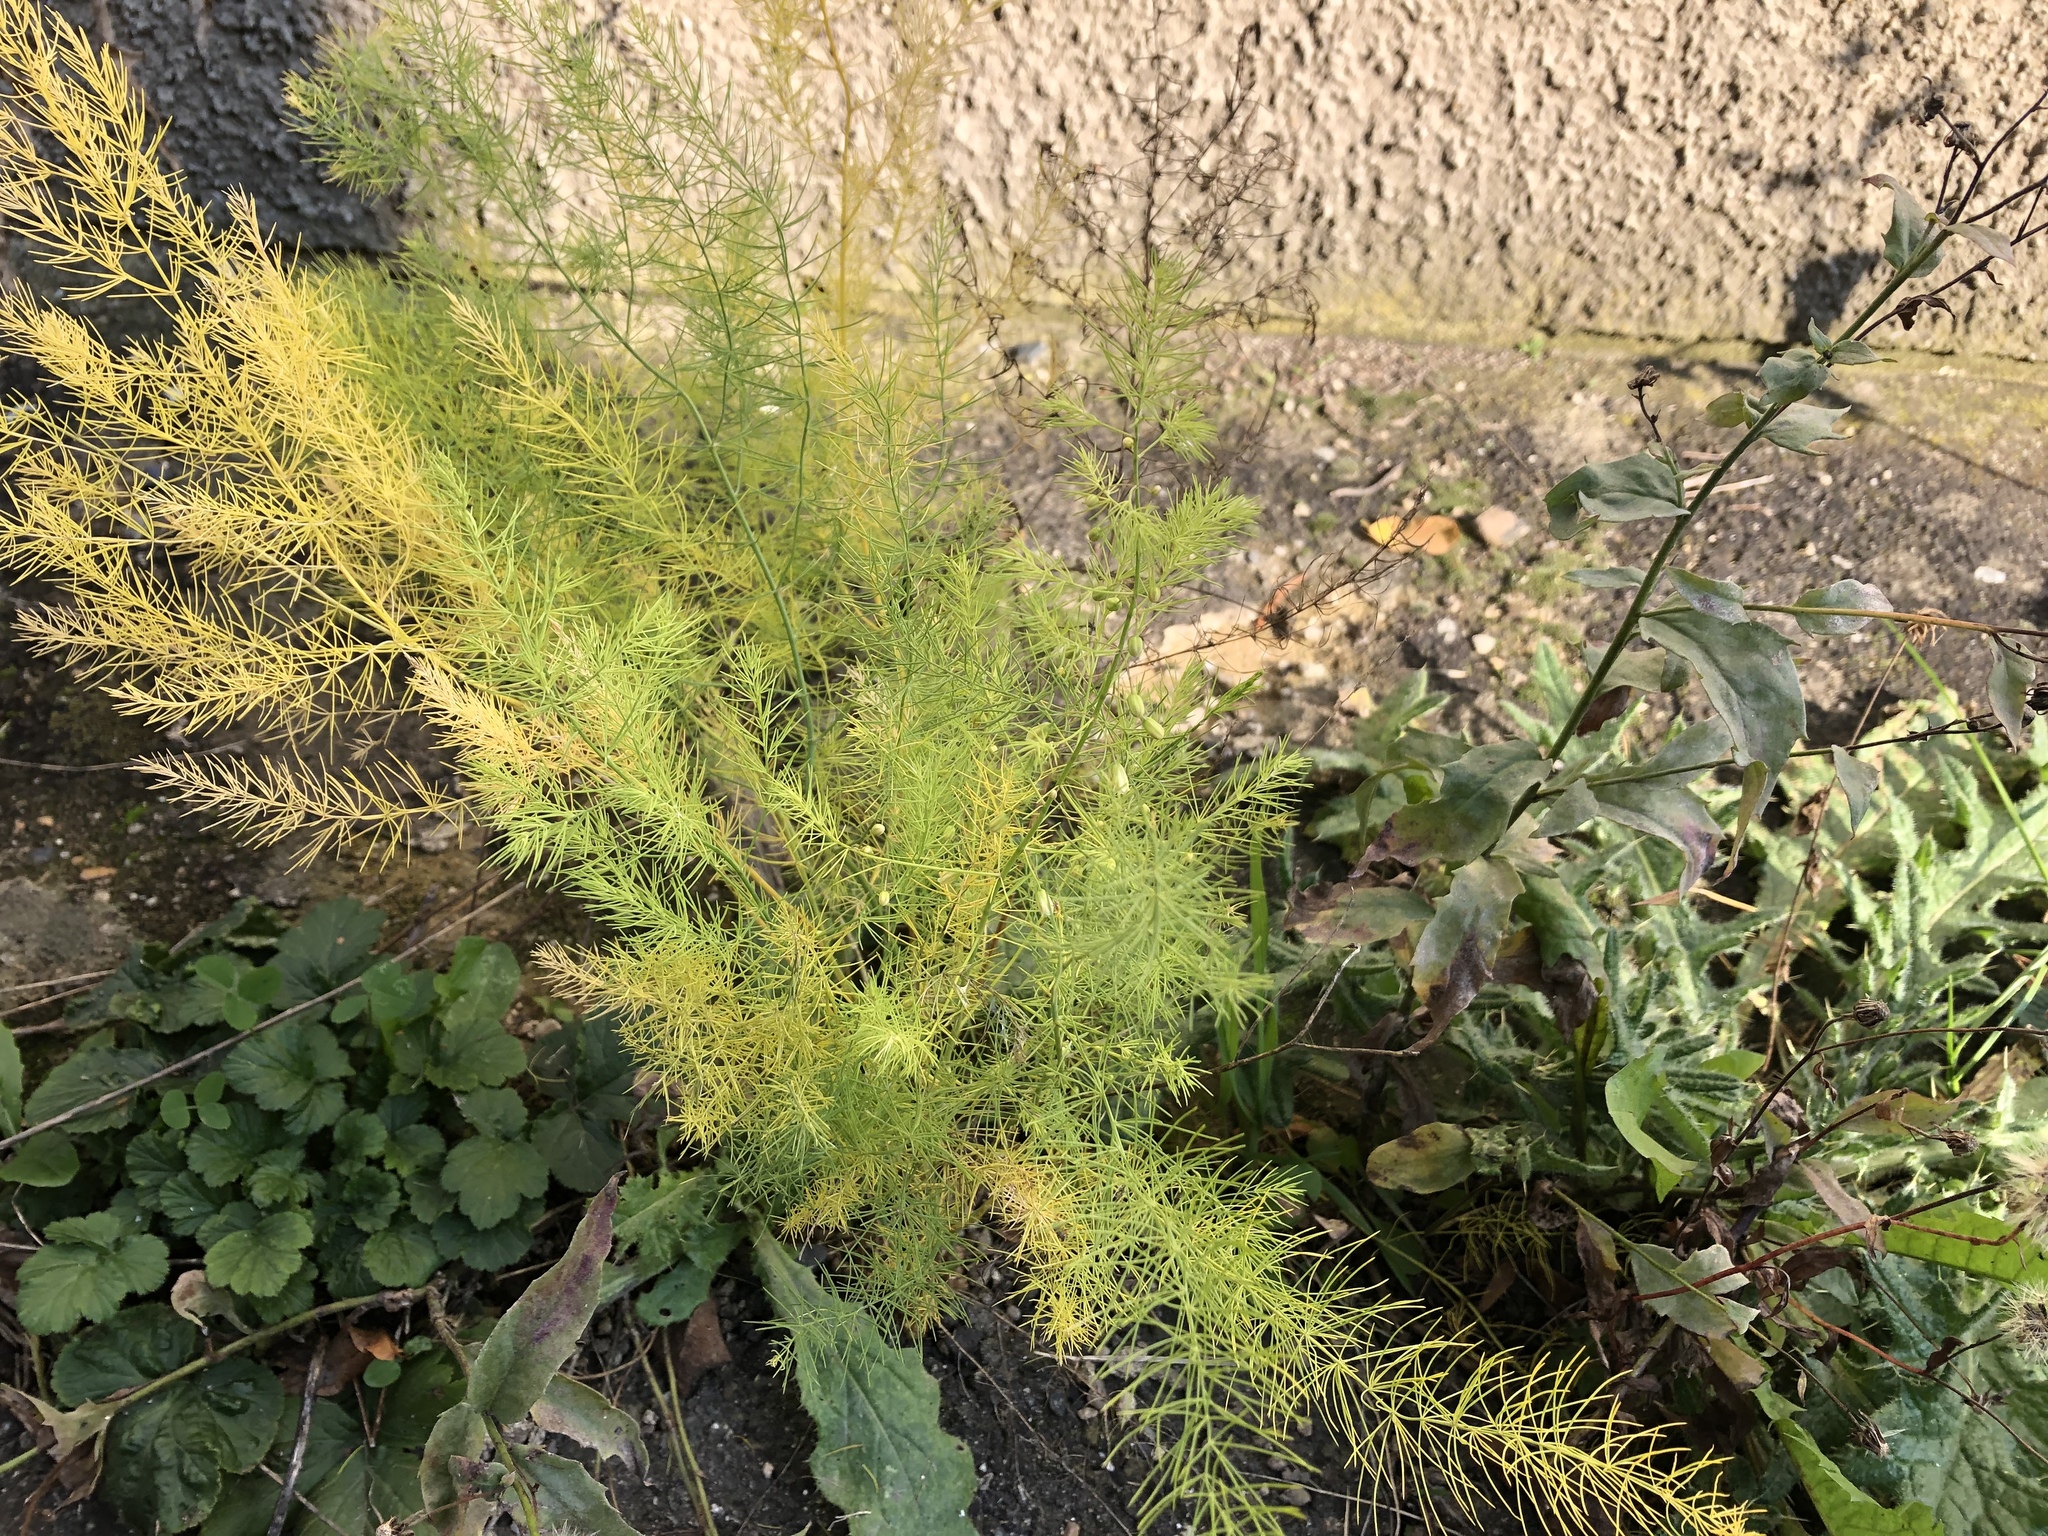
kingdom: Plantae
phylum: Tracheophyta
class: Liliopsida
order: Asparagales
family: Asparagaceae
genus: Asparagus
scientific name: Asparagus officinalis
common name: Garden asparagus
